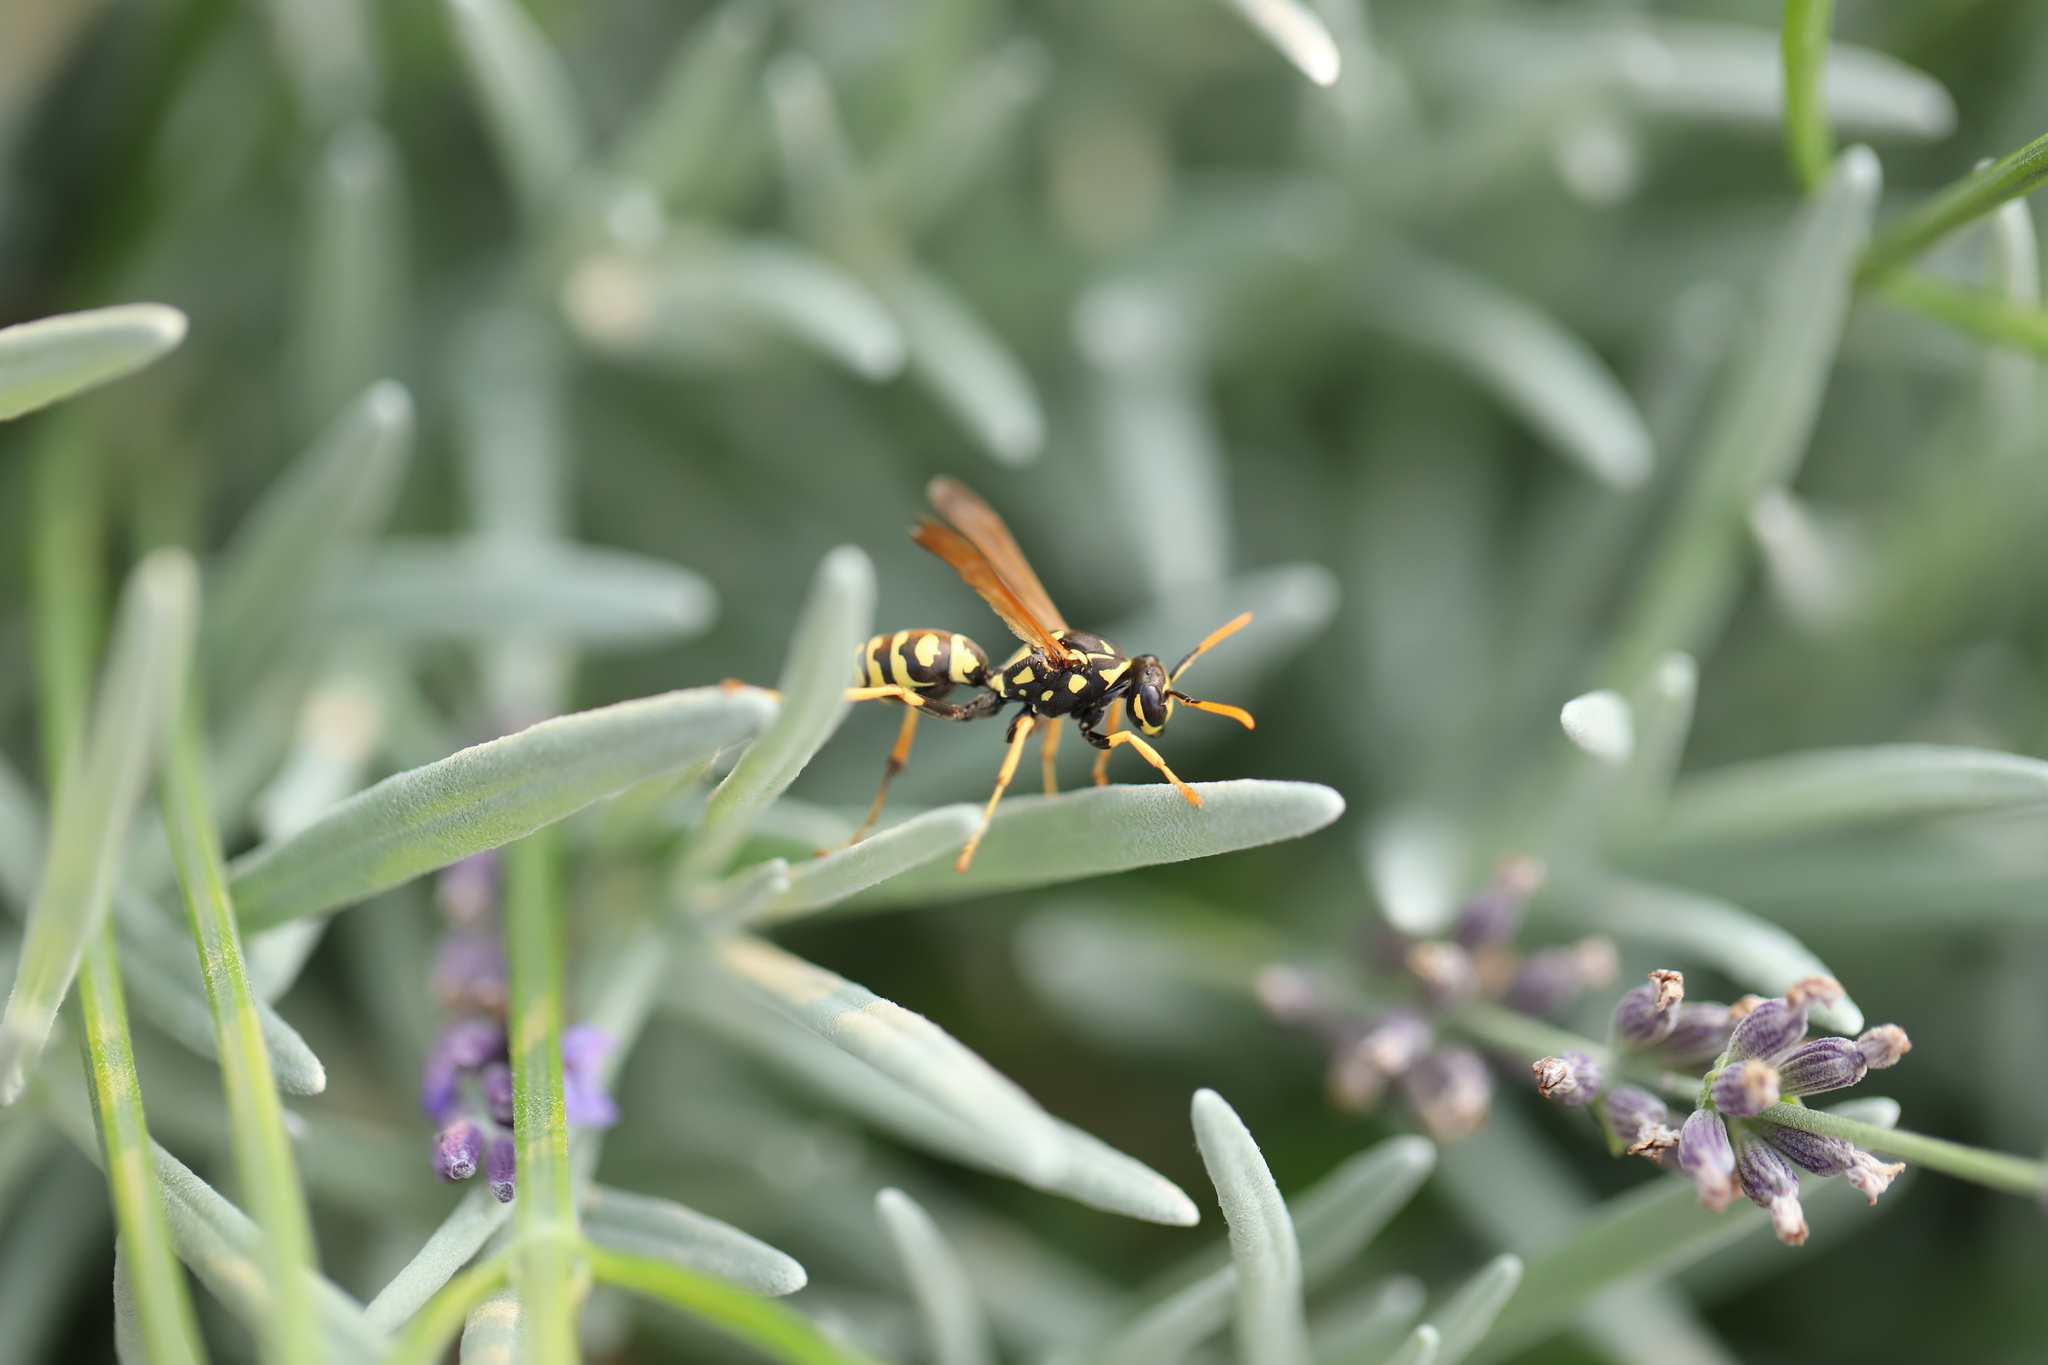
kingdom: Animalia
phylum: Arthropoda
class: Insecta
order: Hymenoptera
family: Eumenidae
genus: Polistes
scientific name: Polistes dominula
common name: Paper wasp
